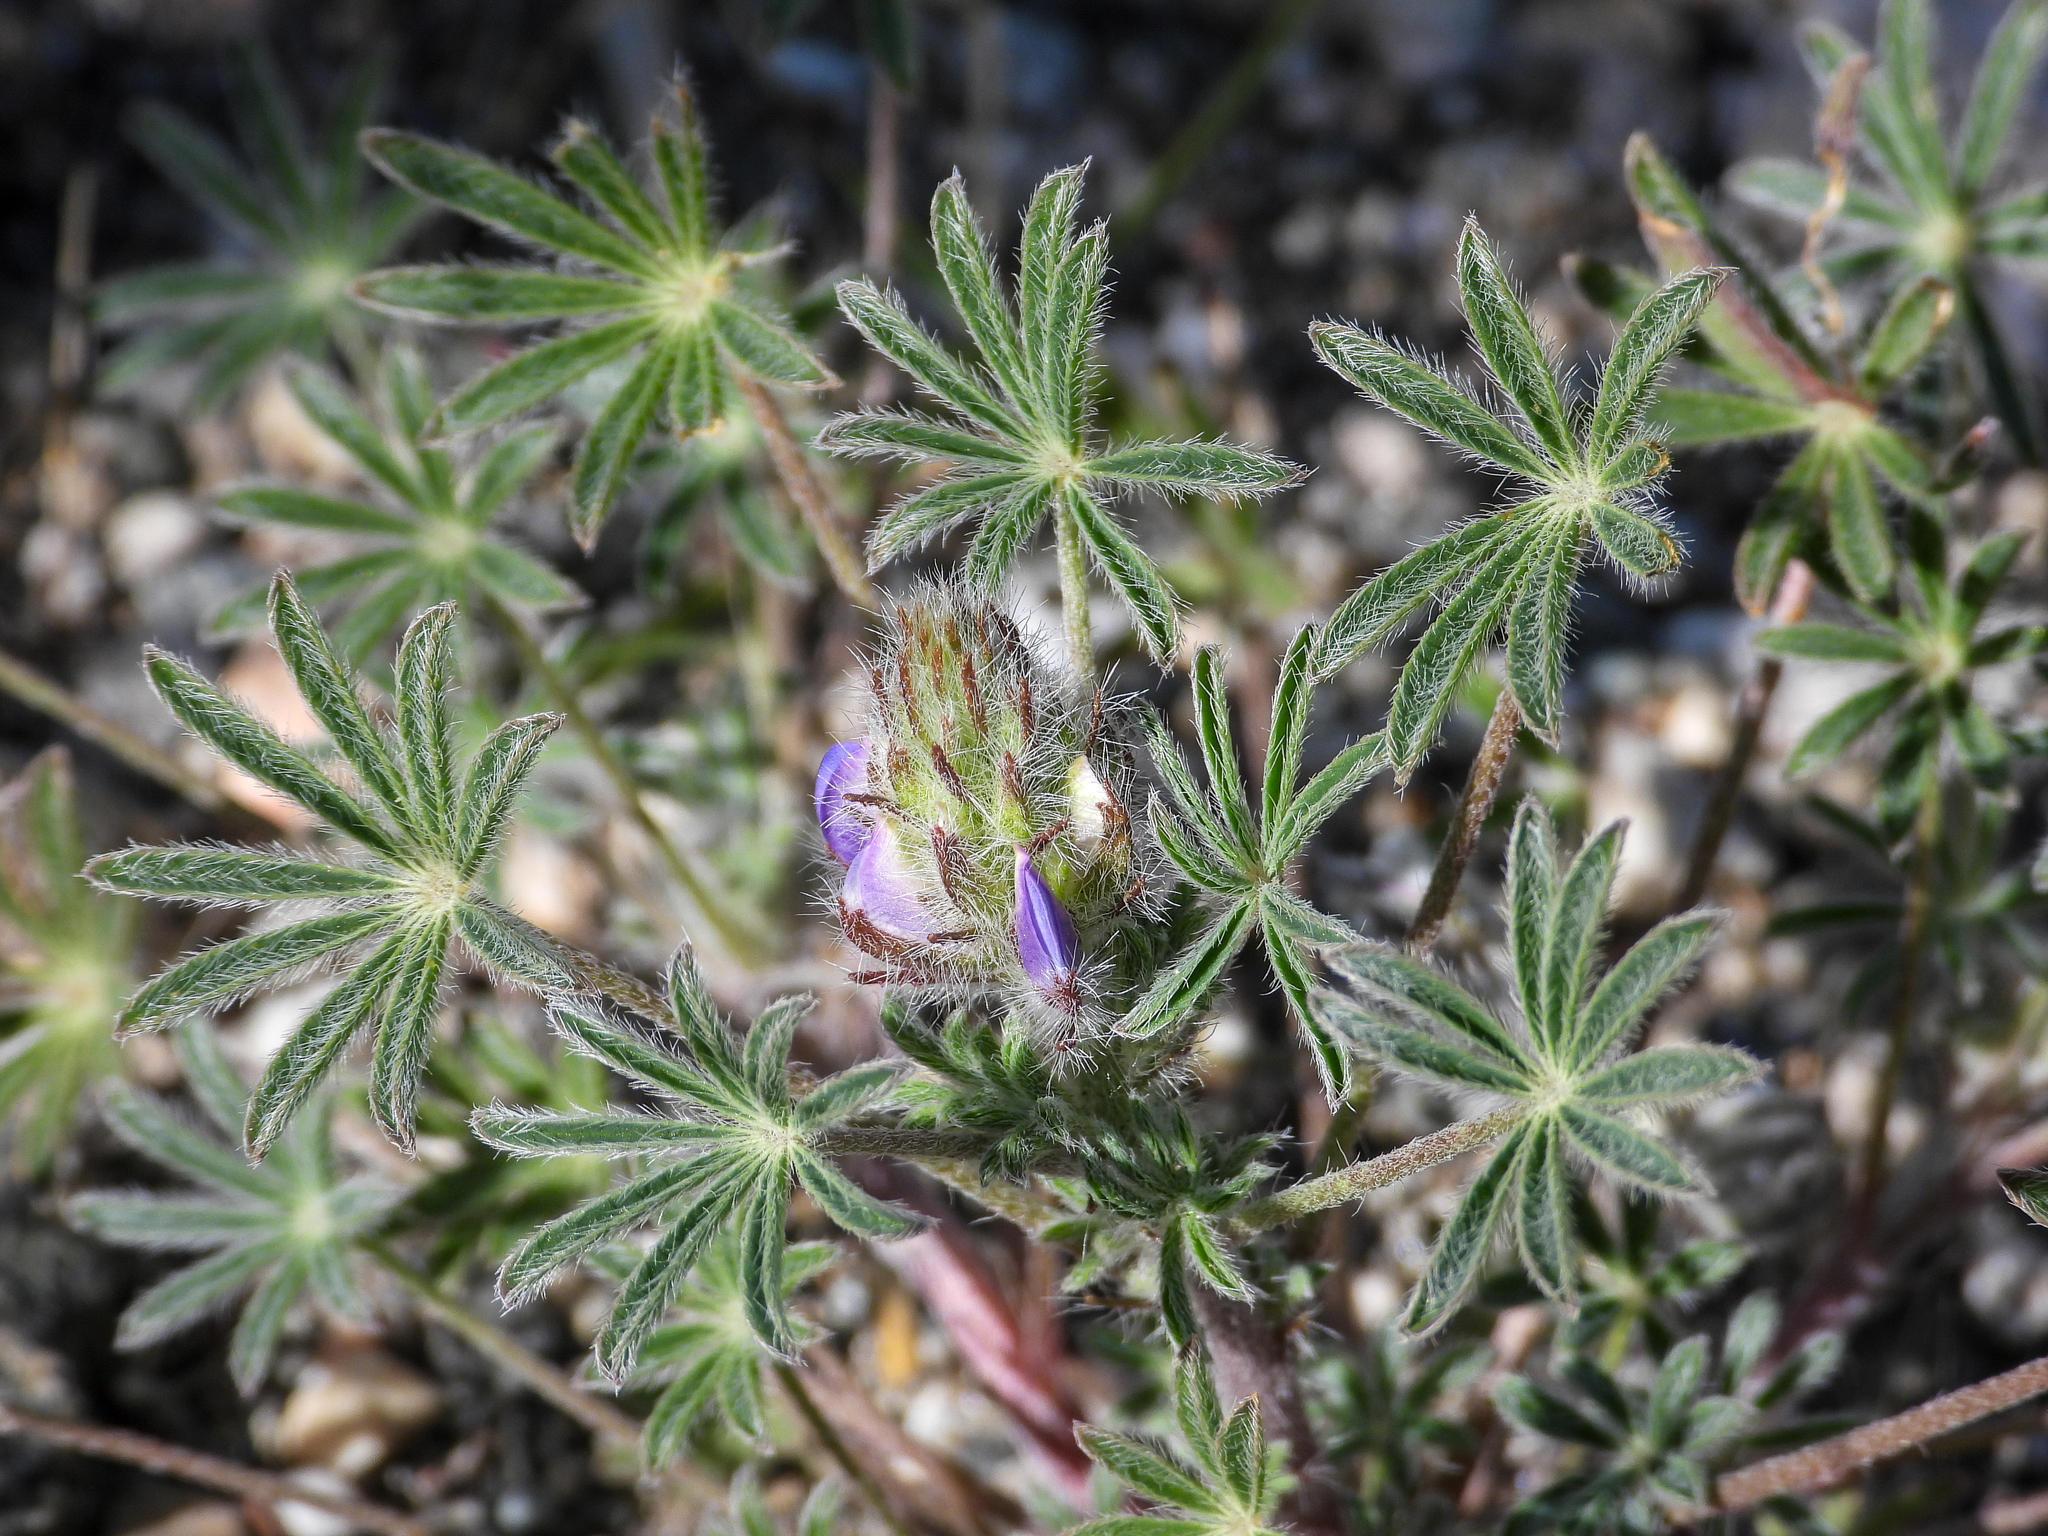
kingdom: Plantae
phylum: Tracheophyta
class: Magnoliopsida
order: Fabales
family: Fabaceae
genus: Lupinus
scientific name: Lupinus concinnus
